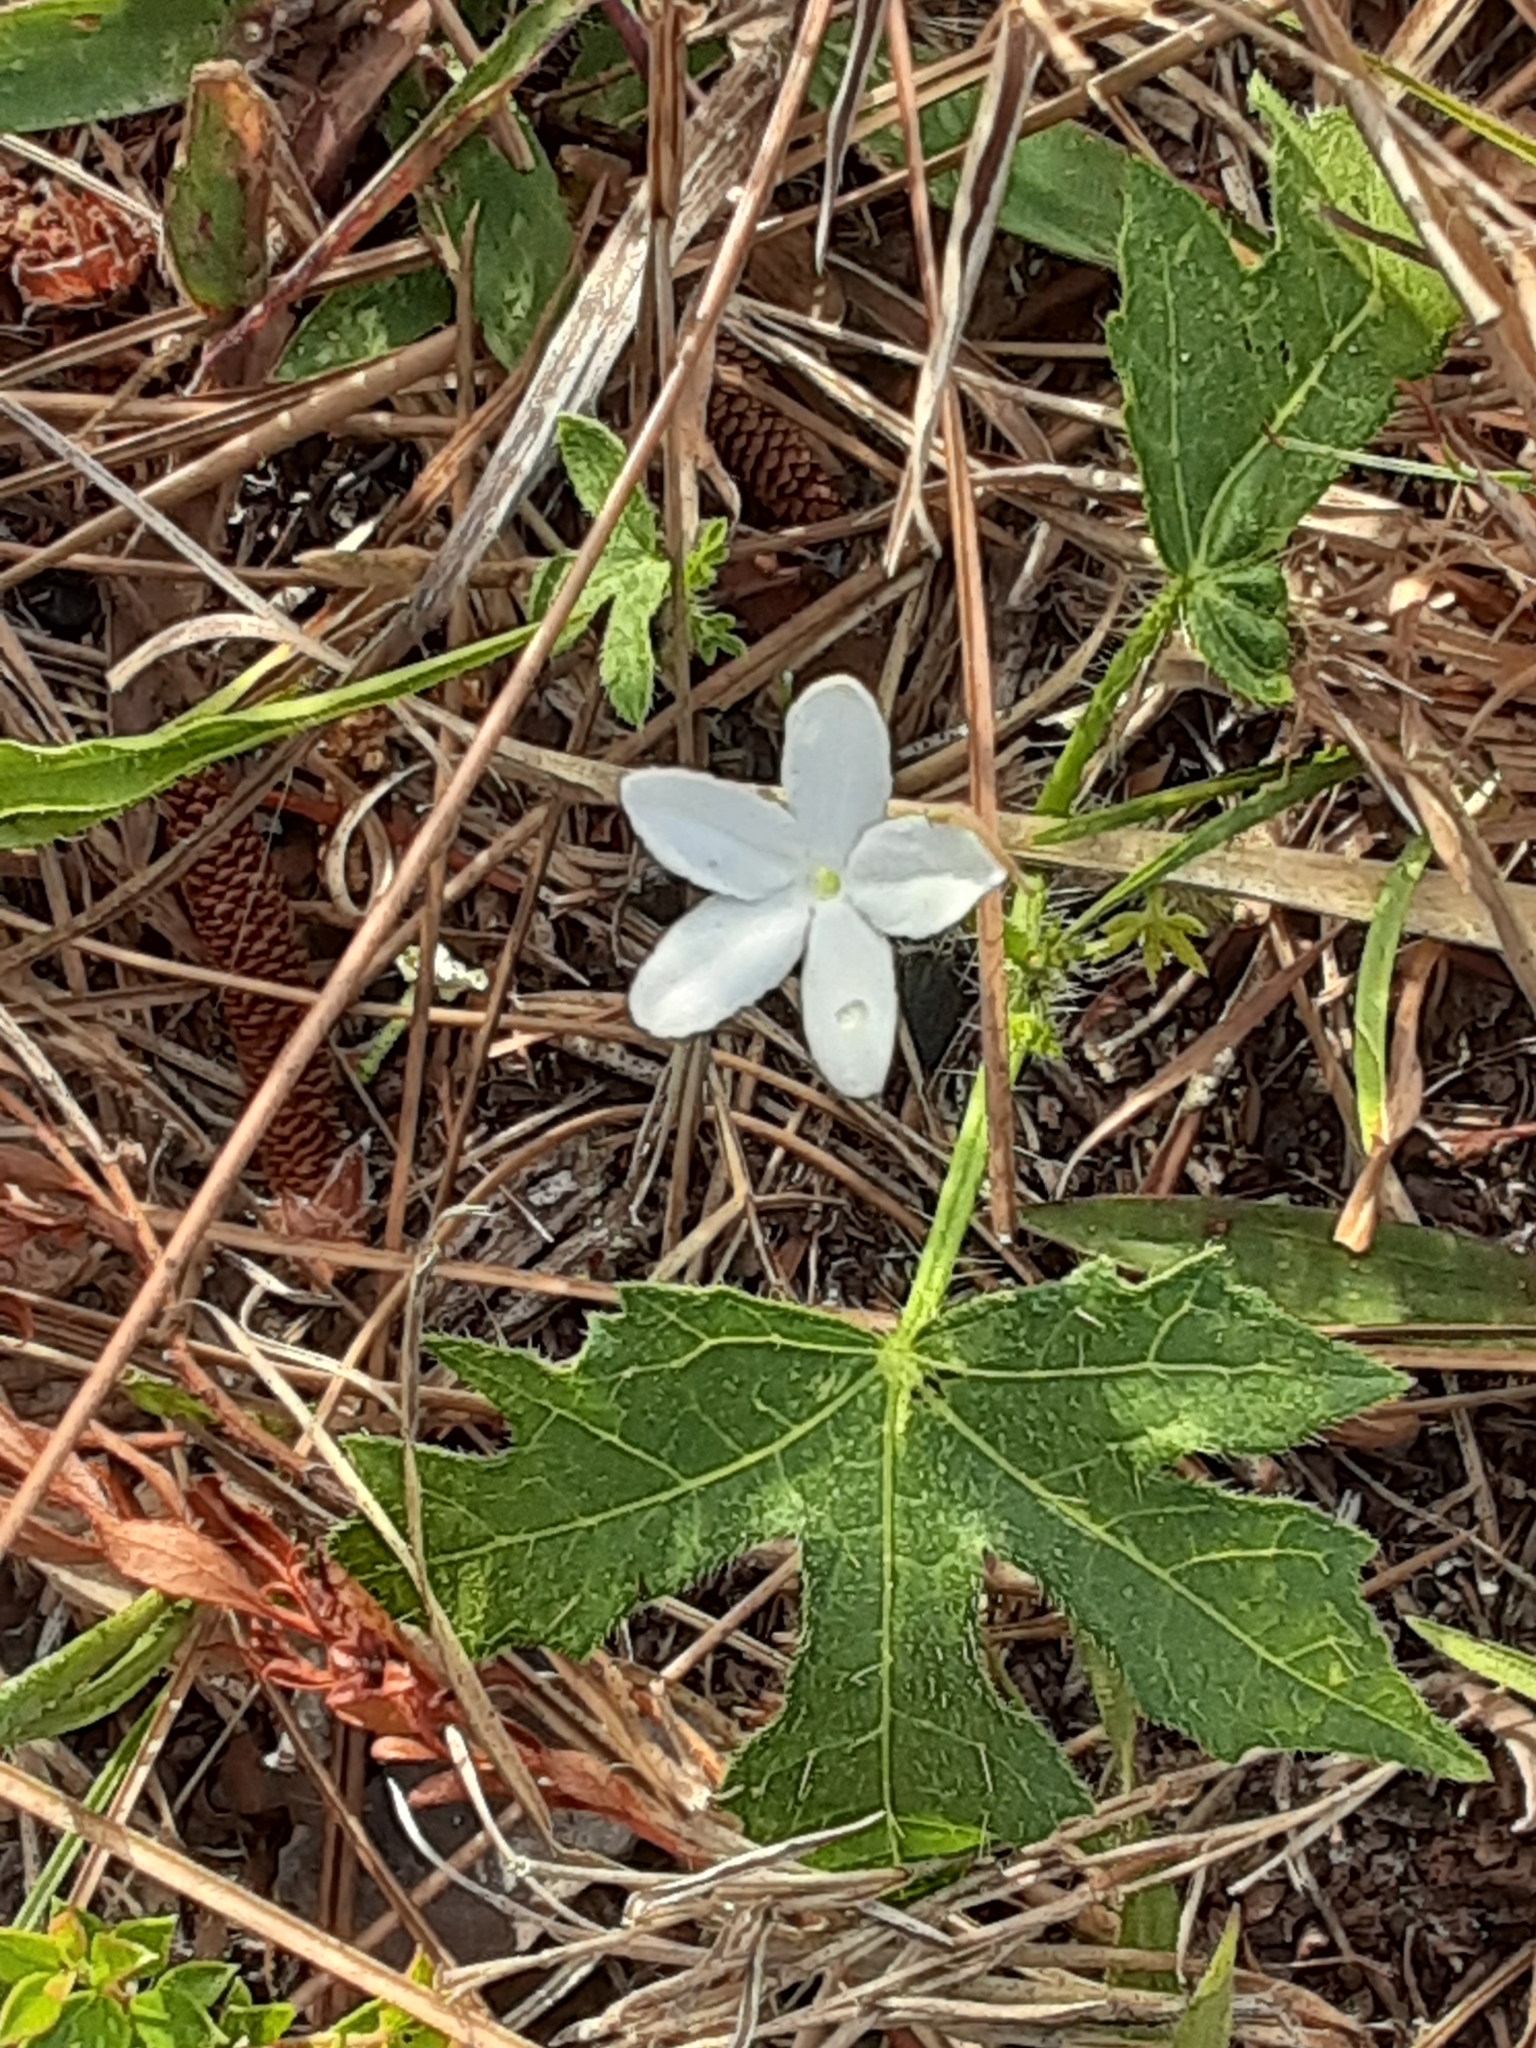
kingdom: Plantae
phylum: Tracheophyta
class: Magnoliopsida
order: Malpighiales
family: Euphorbiaceae
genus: Cnidoscolus
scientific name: Cnidoscolus stimulosus
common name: Bull-nettle
